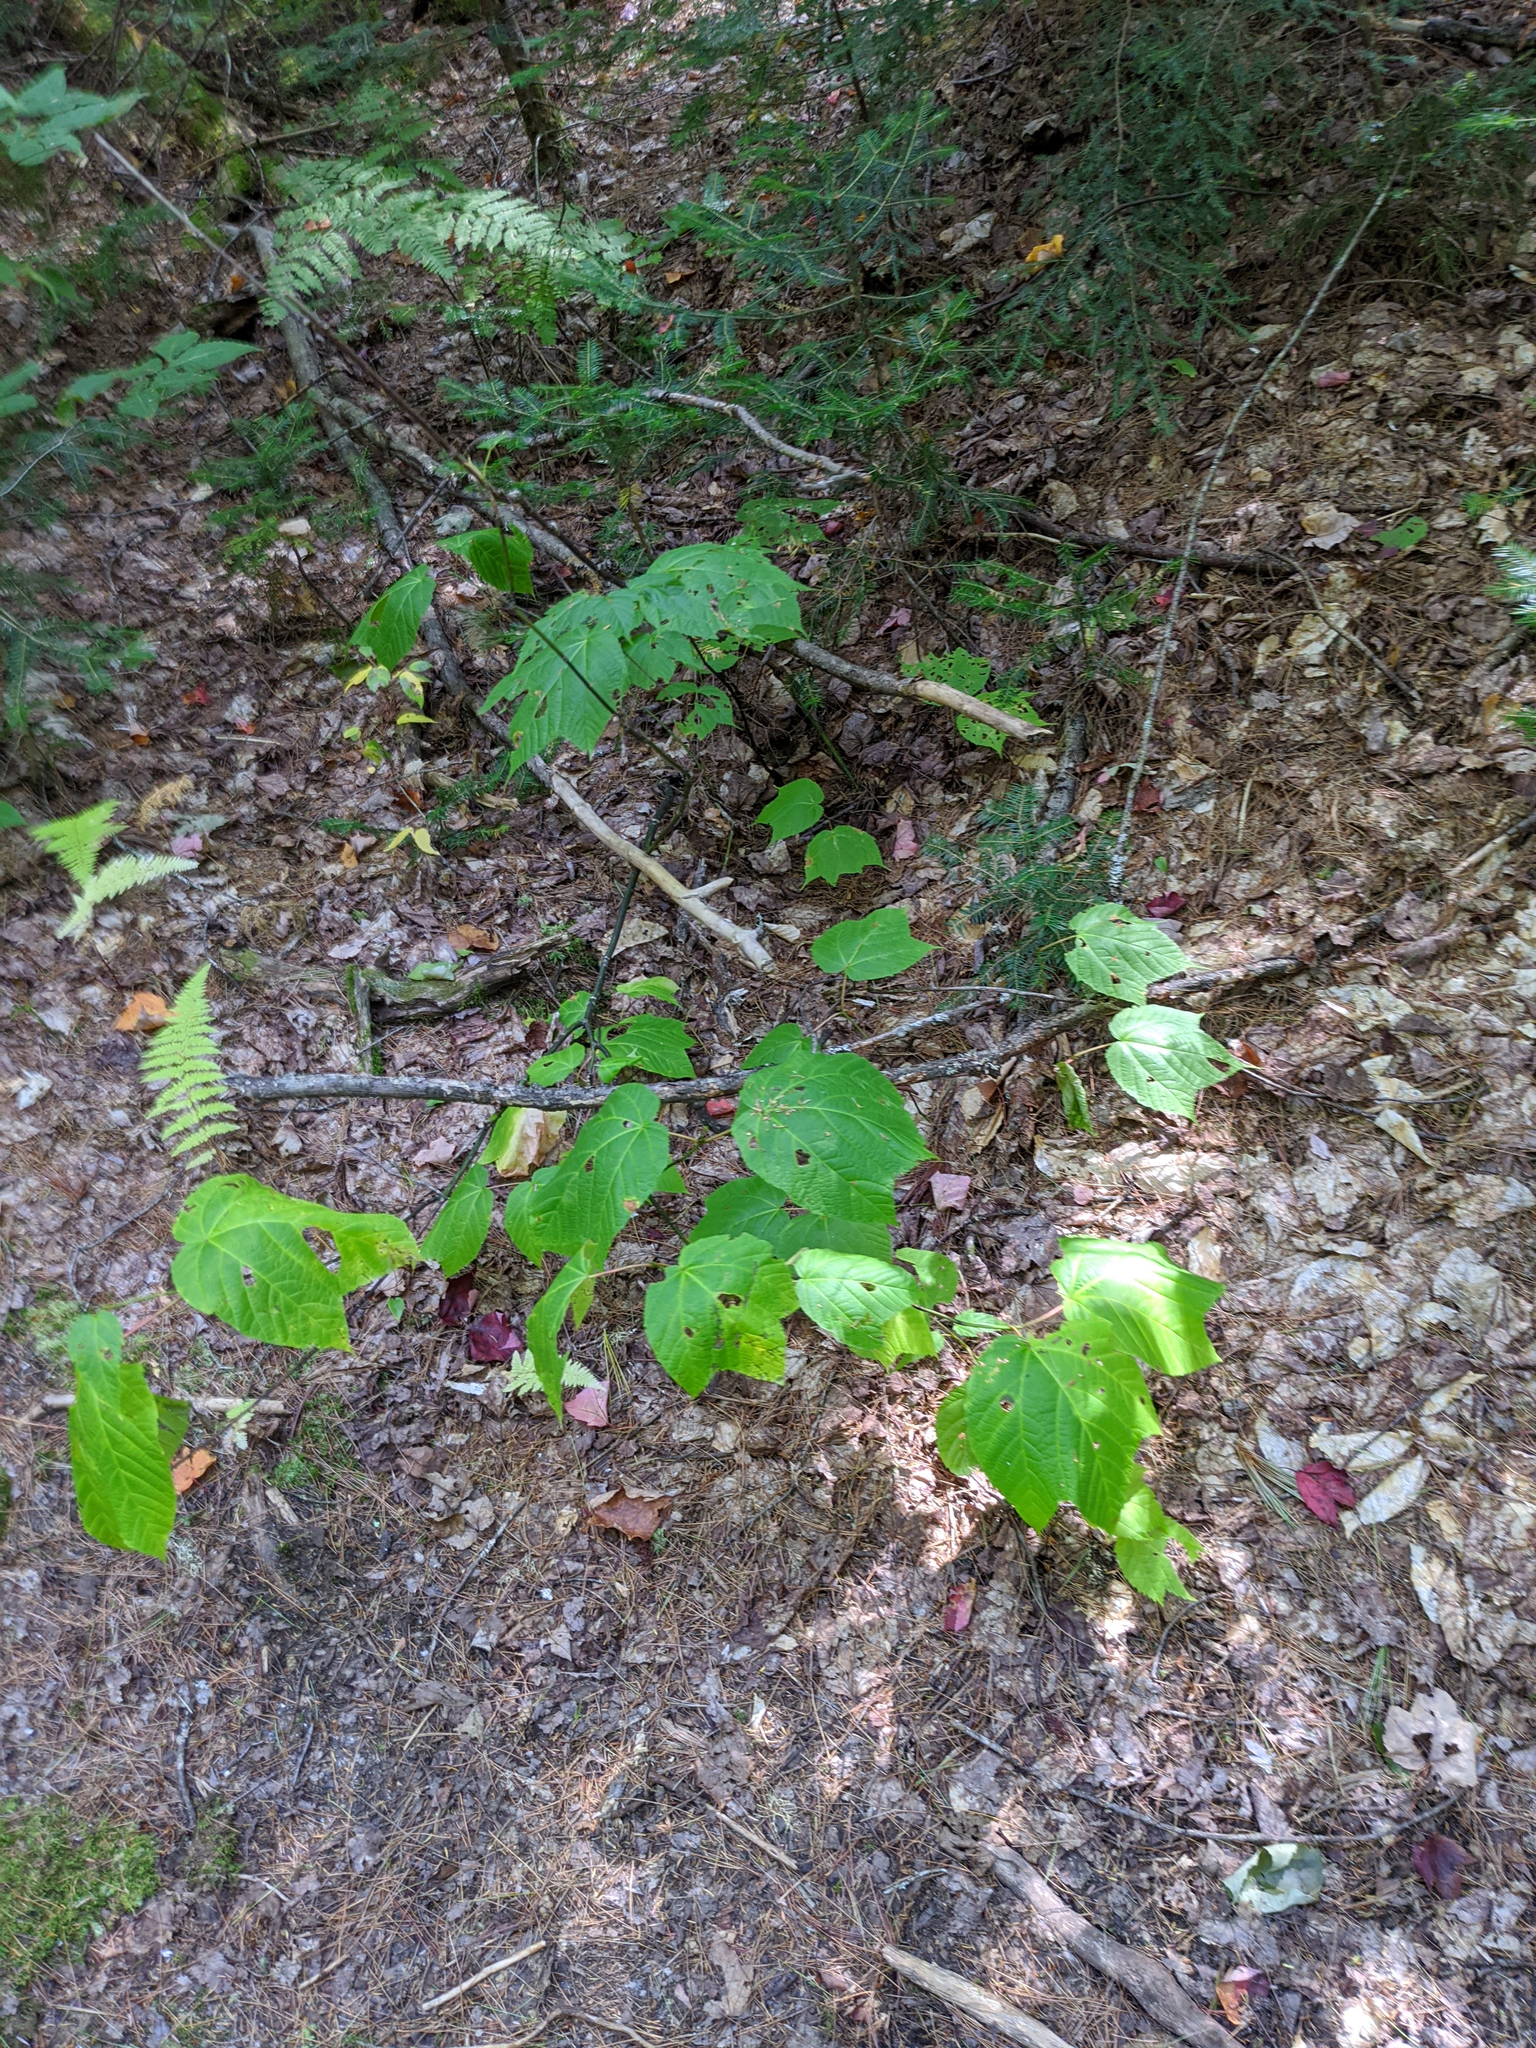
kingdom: Plantae
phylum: Tracheophyta
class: Magnoliopsida
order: Sapindales
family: Sapindaceae
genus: Acer
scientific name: Acer pensylvanicum
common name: Moosewood
